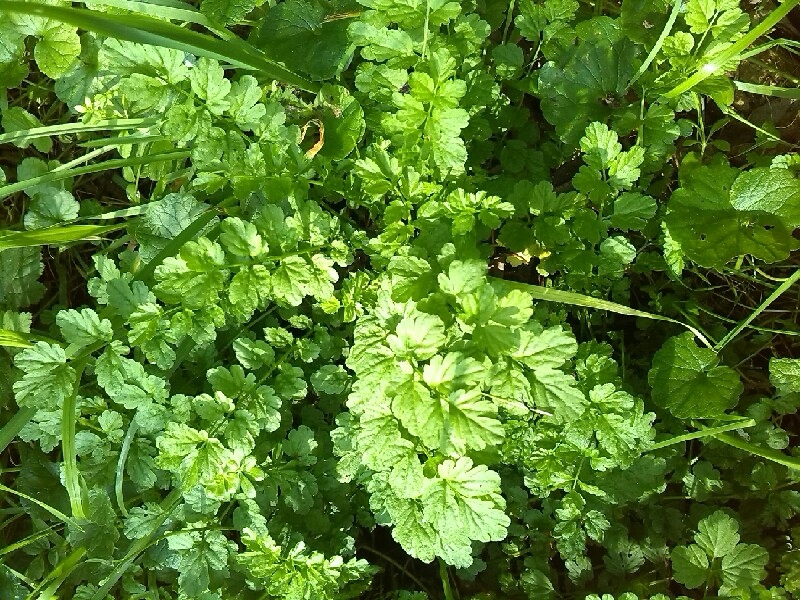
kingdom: Plantae
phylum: Tracheophyta
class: Magnoliopsida
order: Brassicales
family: Brassicaceae
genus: Cardamine
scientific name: Cardamine impatiens
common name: Narrow-leaved bitter-cress
